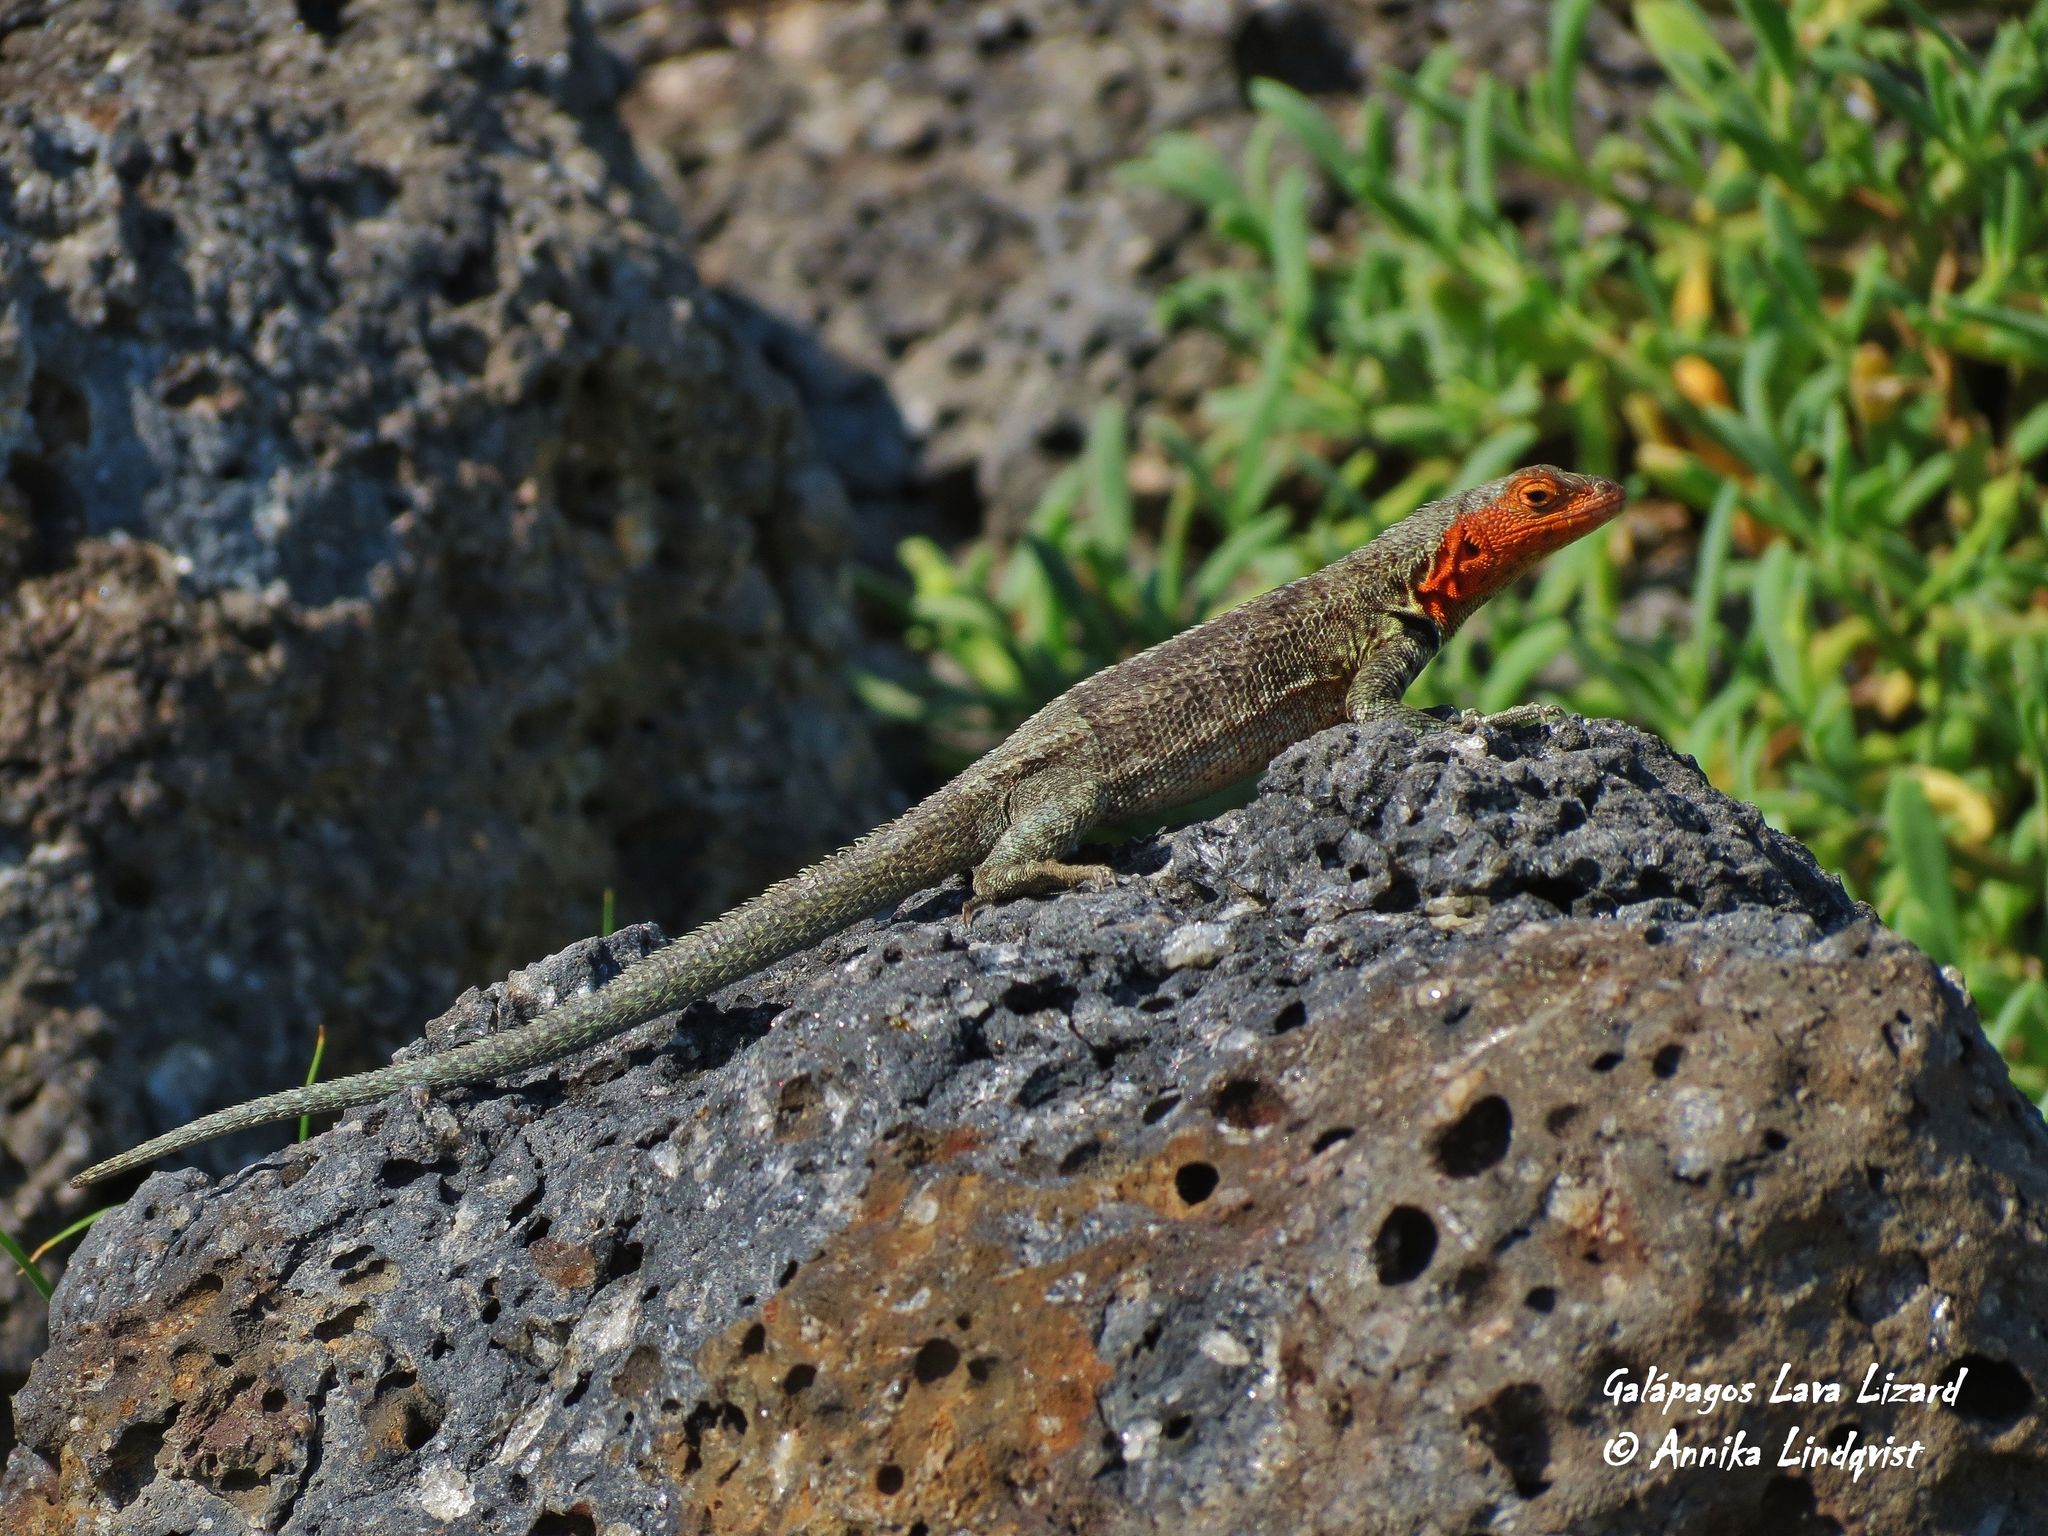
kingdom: Animalia
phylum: Chordata
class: Squamata
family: Tropiduridae
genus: Microlophus
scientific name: Microlophus indefatigabilis
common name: Galapagos lava lizard
